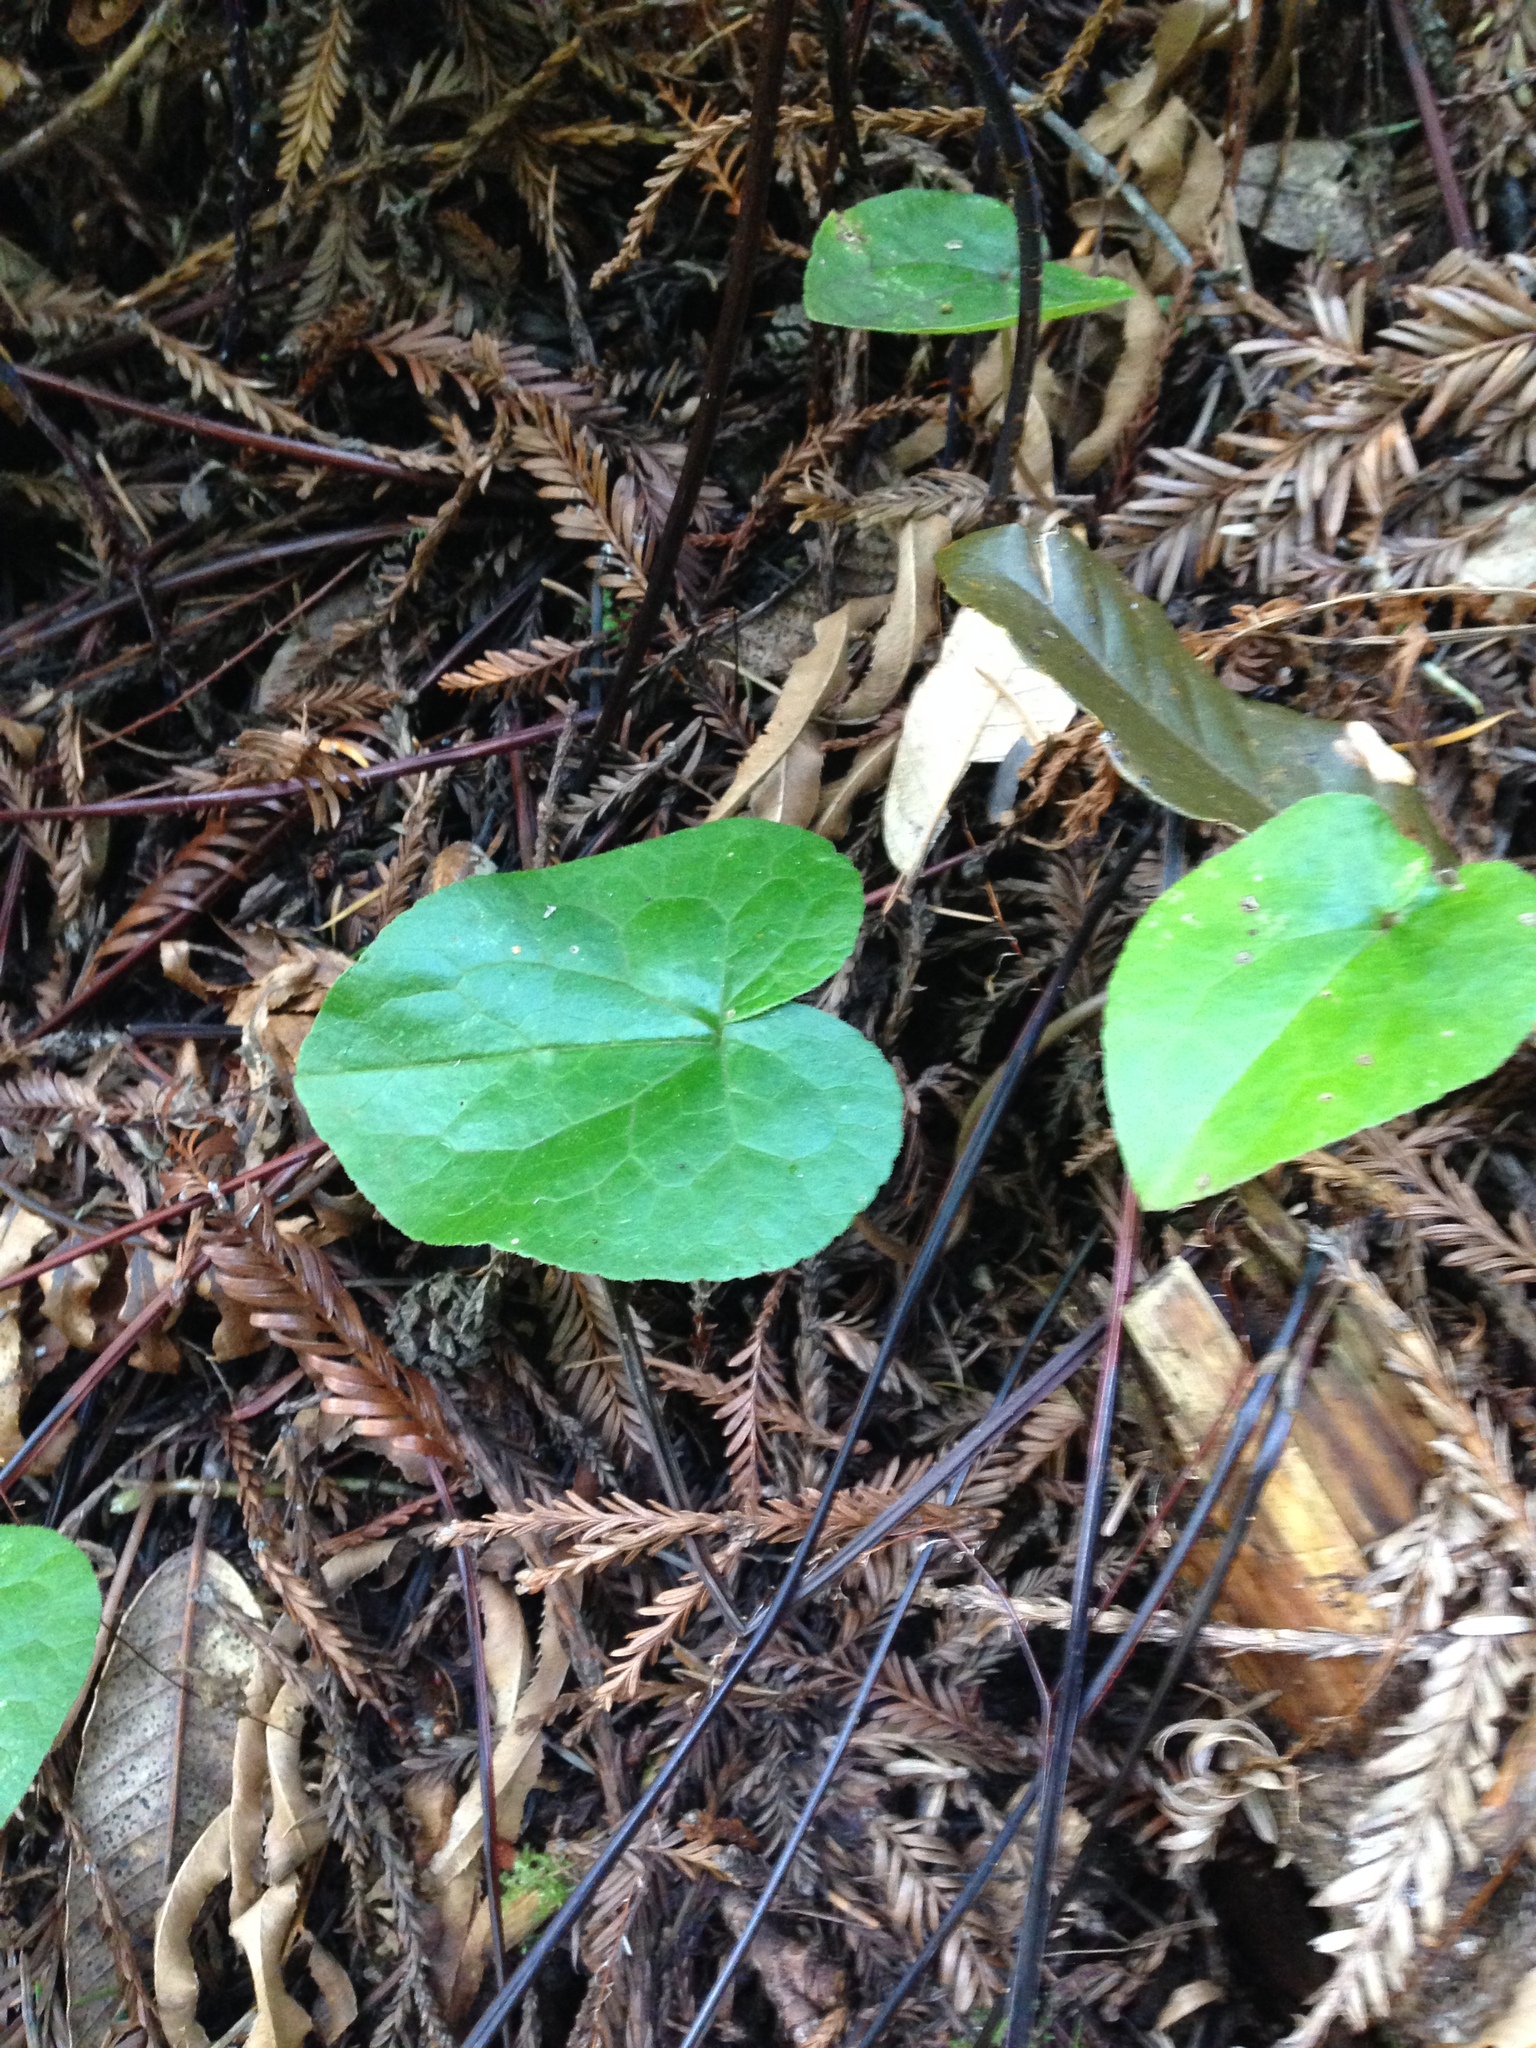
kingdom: Plantae
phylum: Tracheophyta
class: Magnoliopsida
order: Piperales
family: Aristolochiaceae
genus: Asarum
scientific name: Asarum caudatum
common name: Wild ginger
